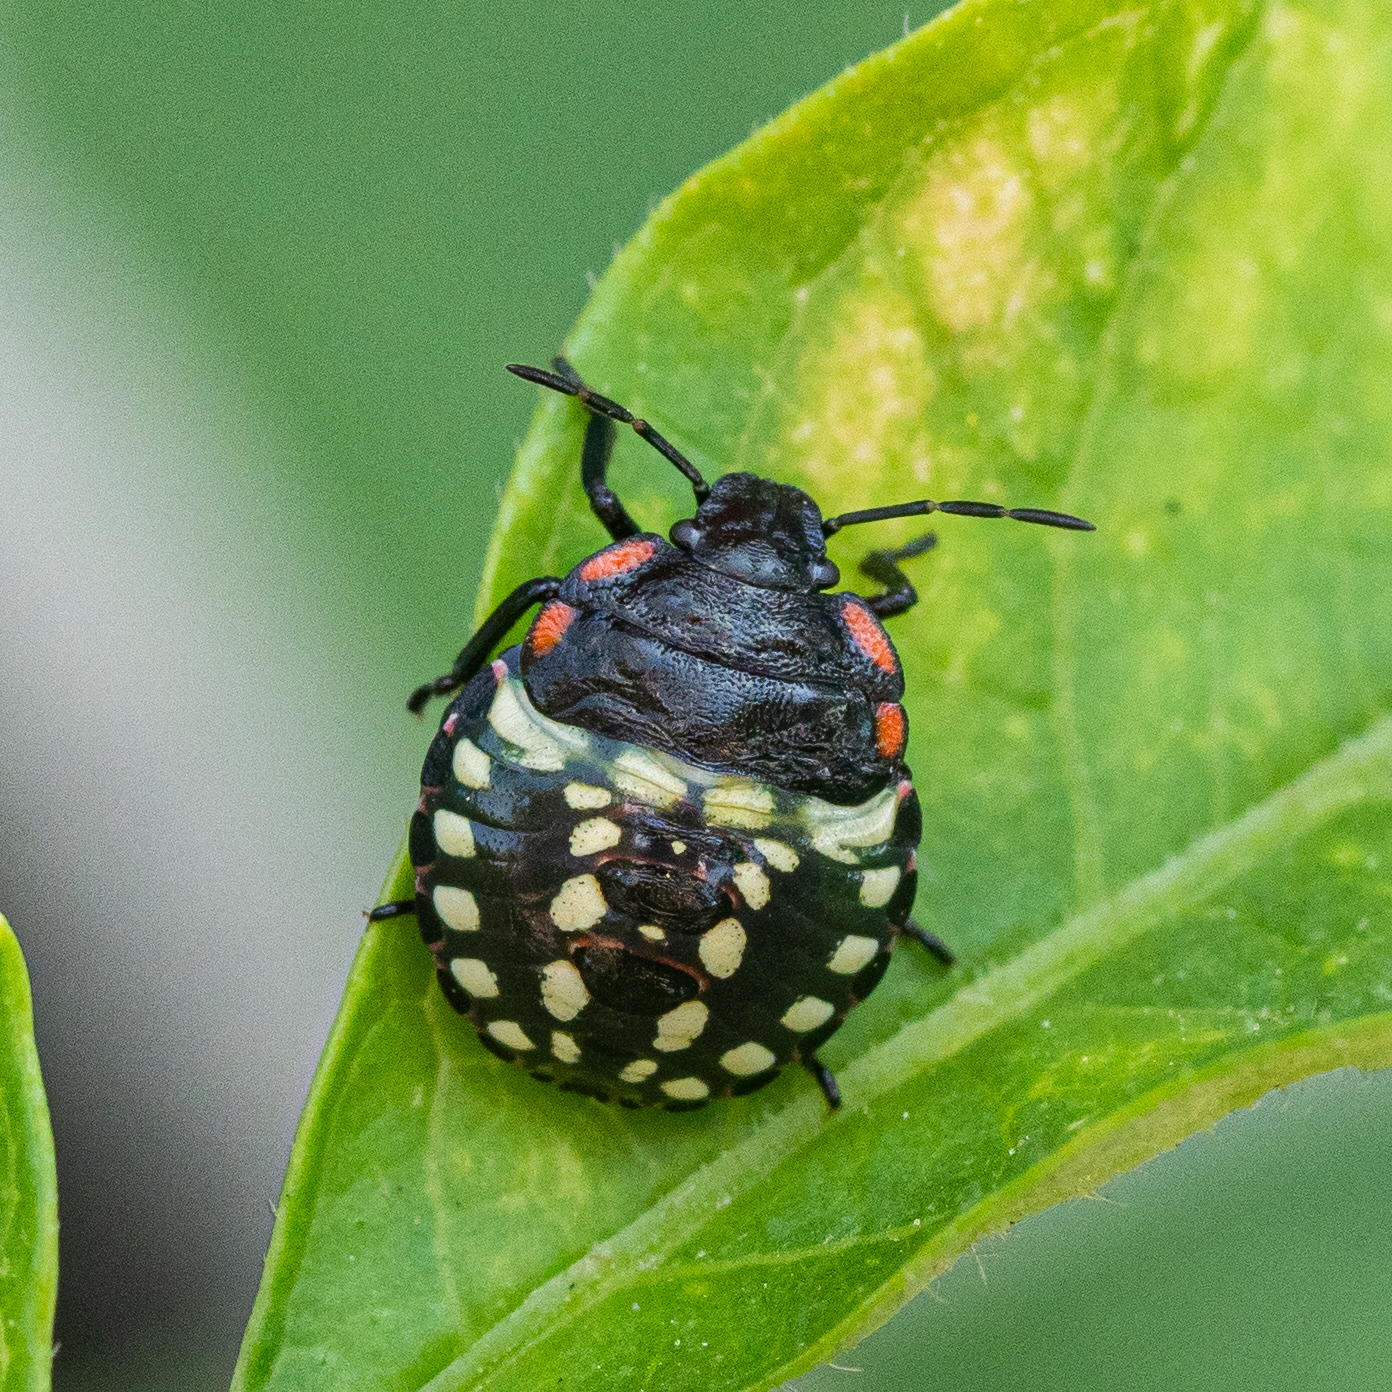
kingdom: Animalia
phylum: Arthropoda
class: Insecta
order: Hemiptera
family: Pentatomidae
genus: Nezara
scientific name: Nezara viridula
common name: Southern green stink bug
